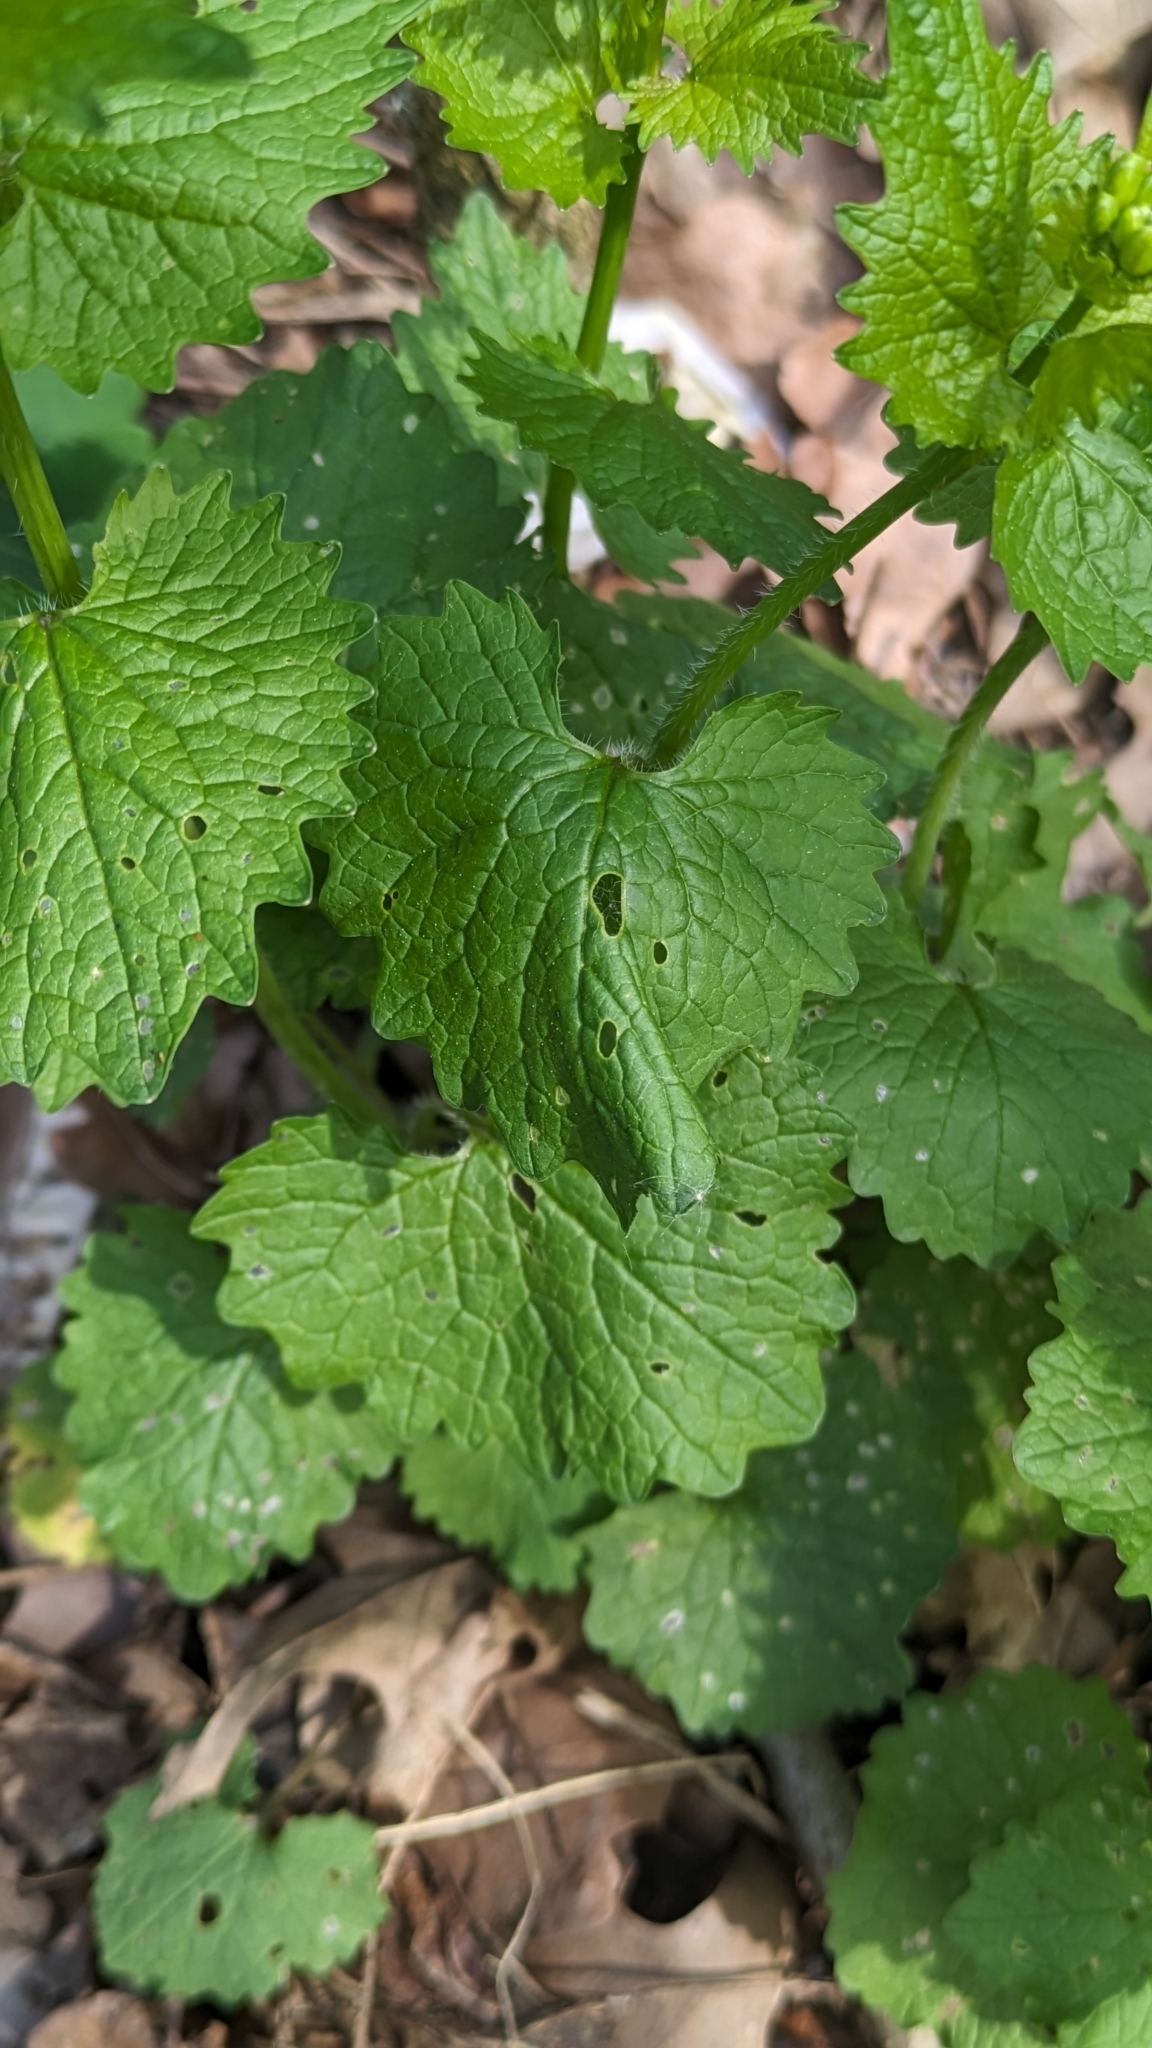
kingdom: Plantae
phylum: Tracheophyta
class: Magnoliopsida
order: Brassicales
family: Brassicaceae
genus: Alliaria
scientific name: Alliaria petiolata
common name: Garlic mustard
